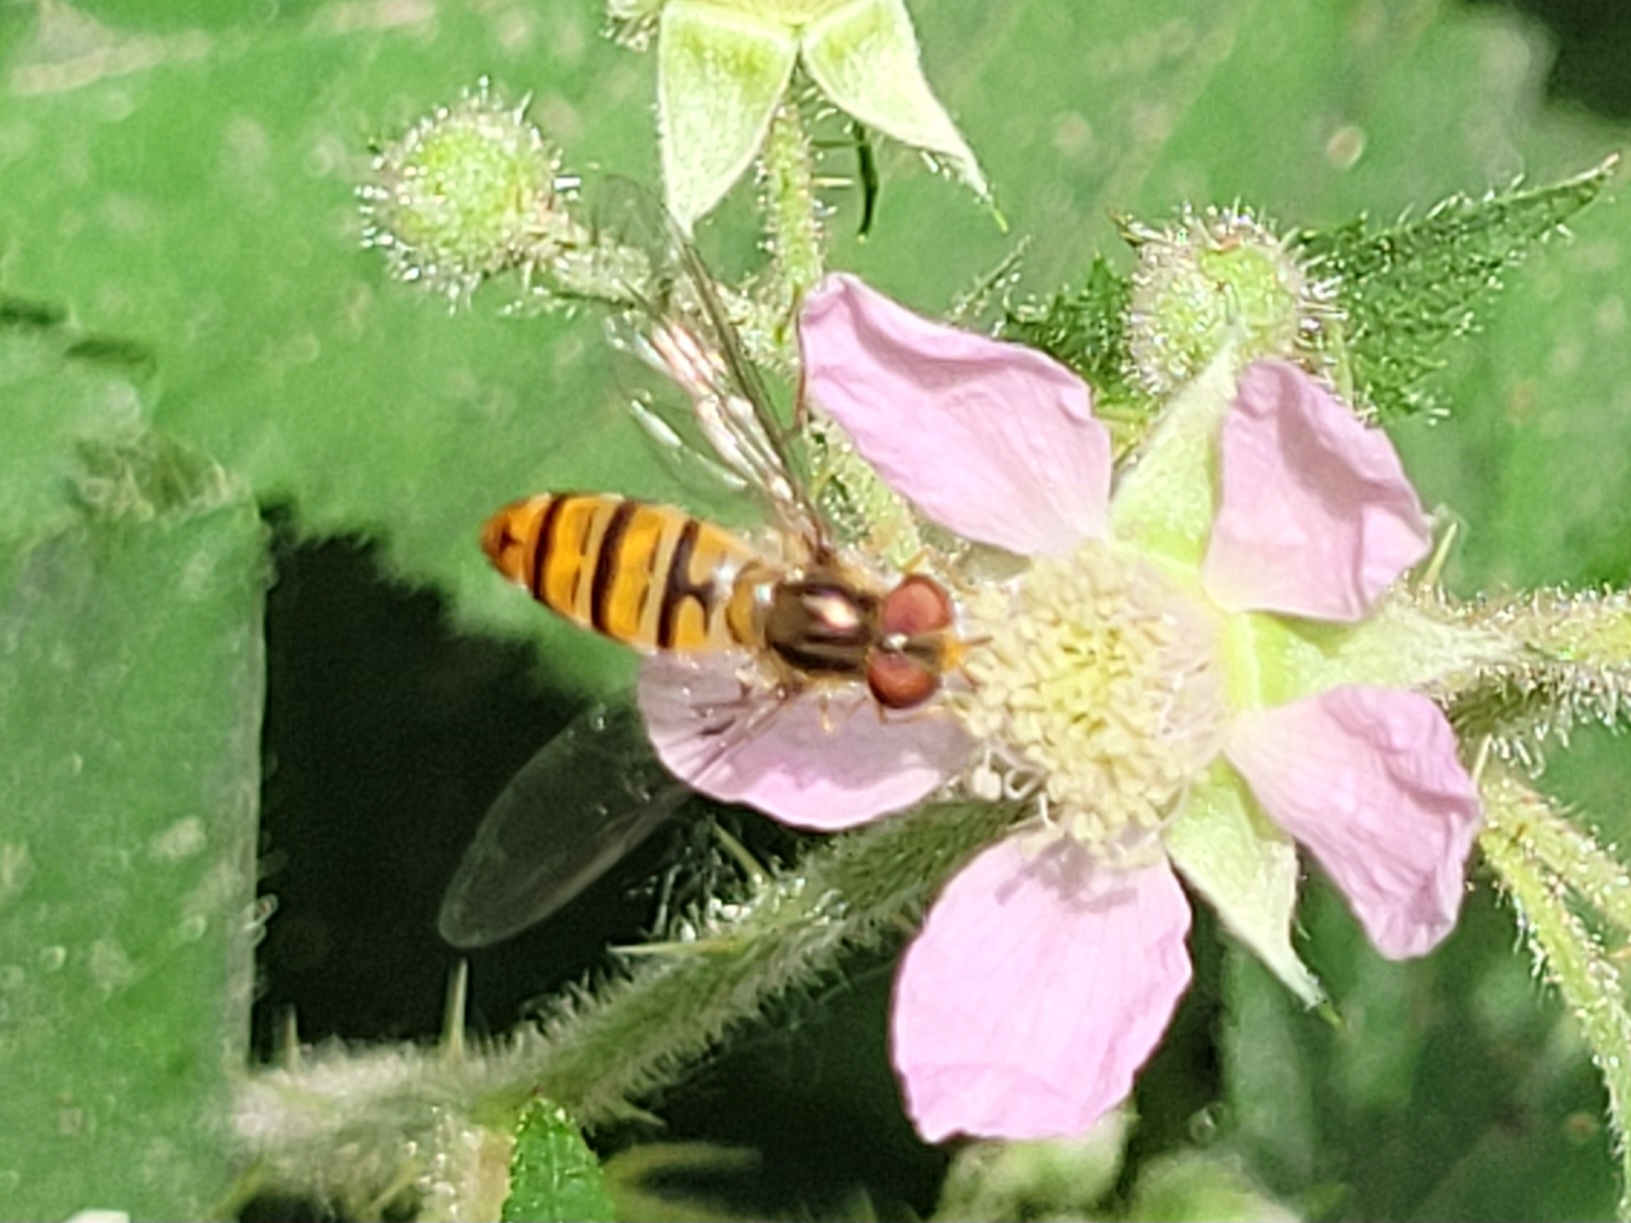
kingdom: Animalia
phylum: Arthropoda
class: Insecta
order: Diptera
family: Syrphidae
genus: Episyrphus
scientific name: Episyrphus balteatus
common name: Marmalade hoverfly
